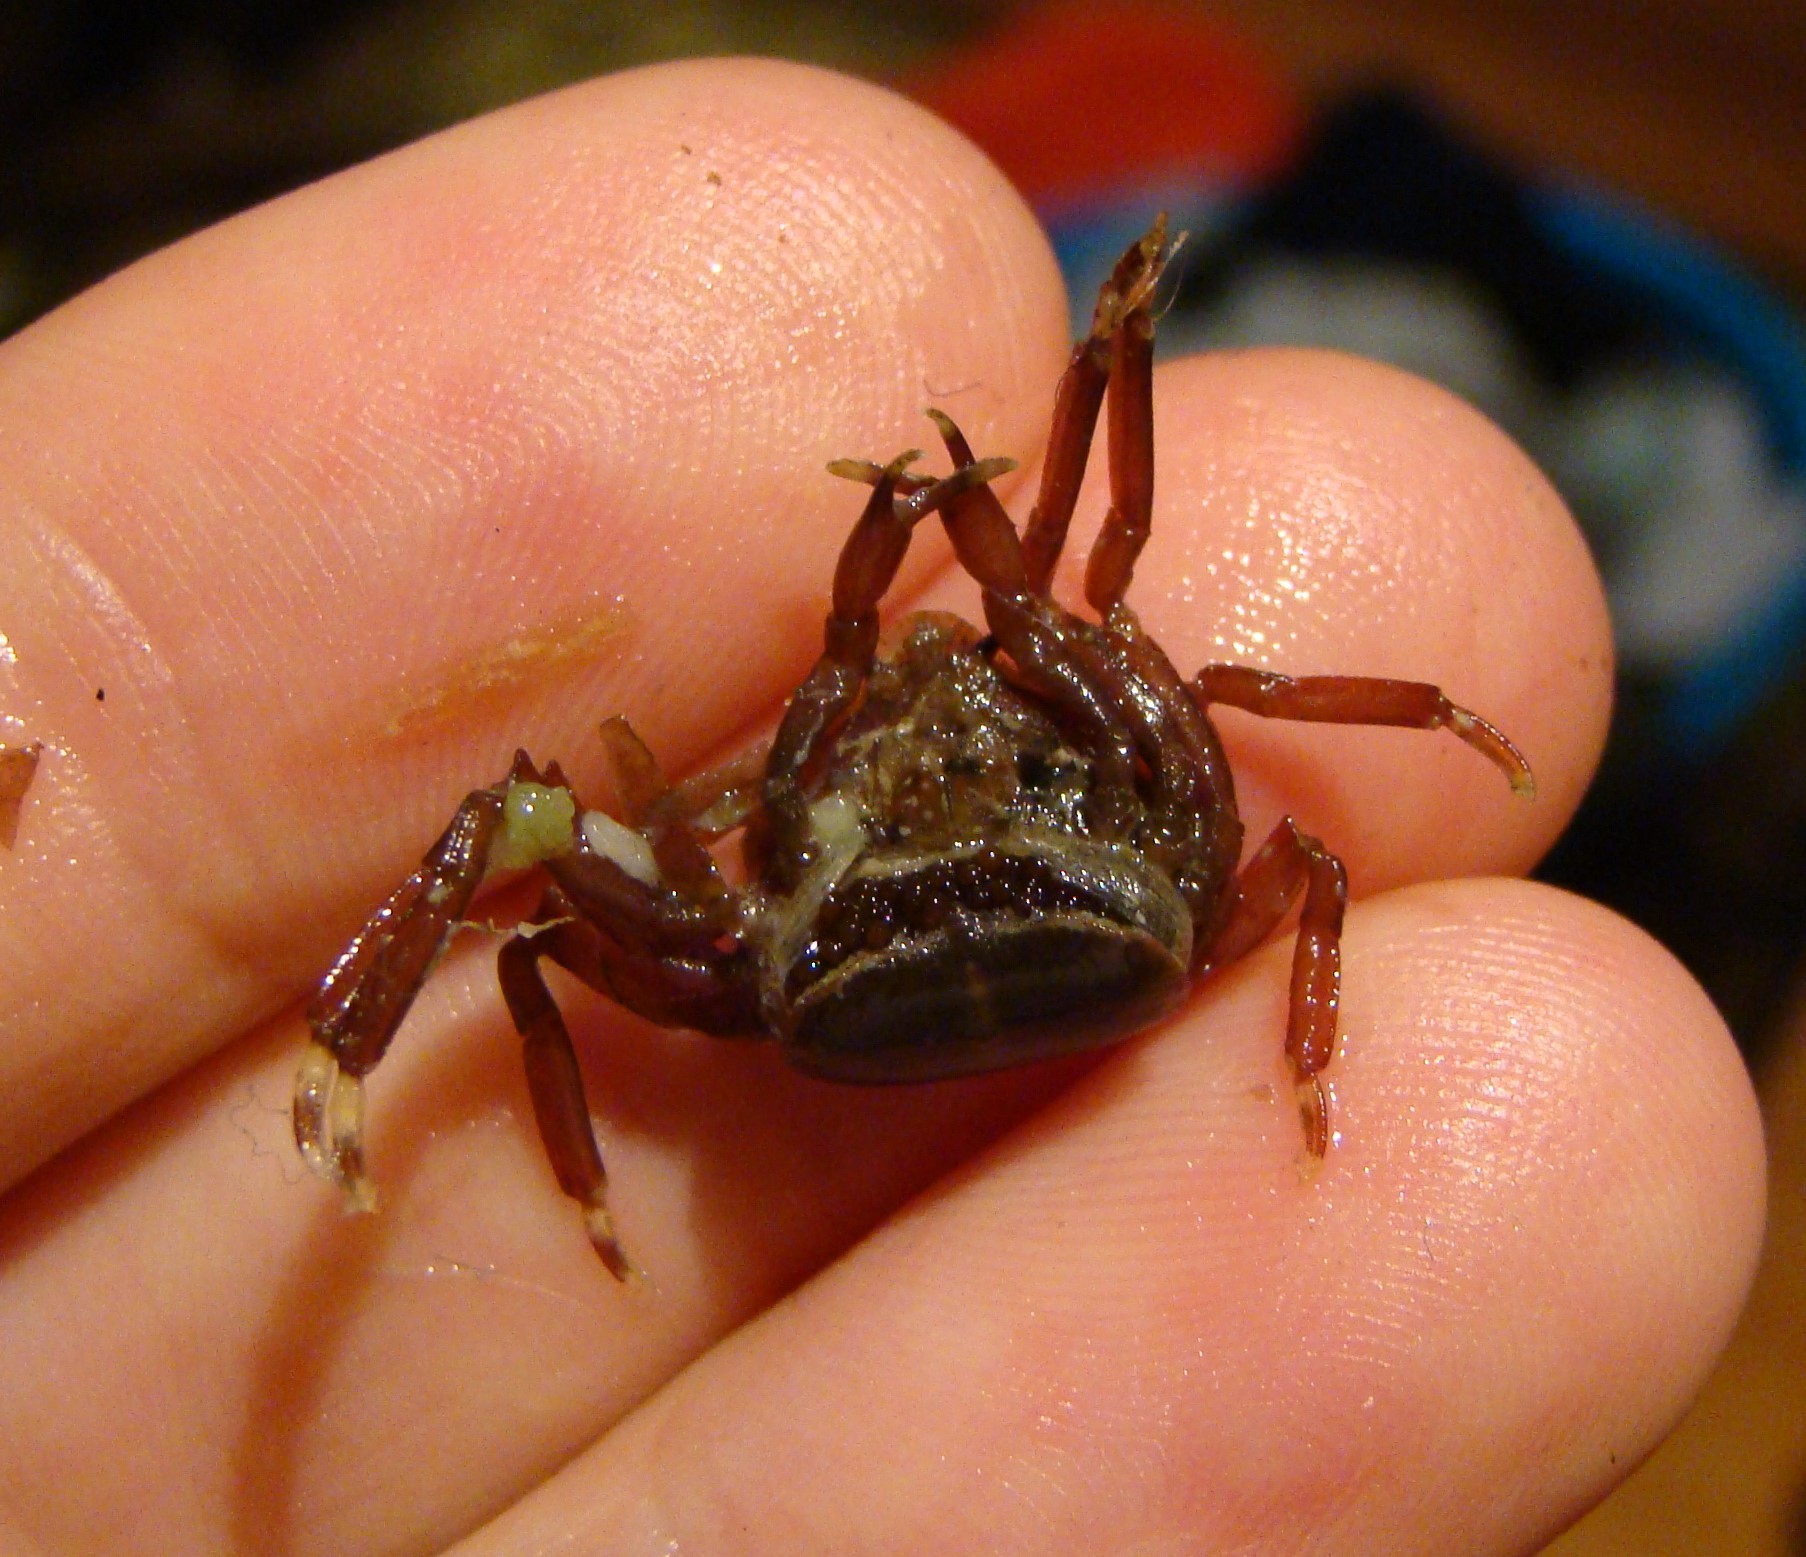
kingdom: Animalia
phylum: Arthropoda
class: Malacostraca
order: Decapoda
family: Hymenosomatidae
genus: Elamena
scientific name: Elamena producta
